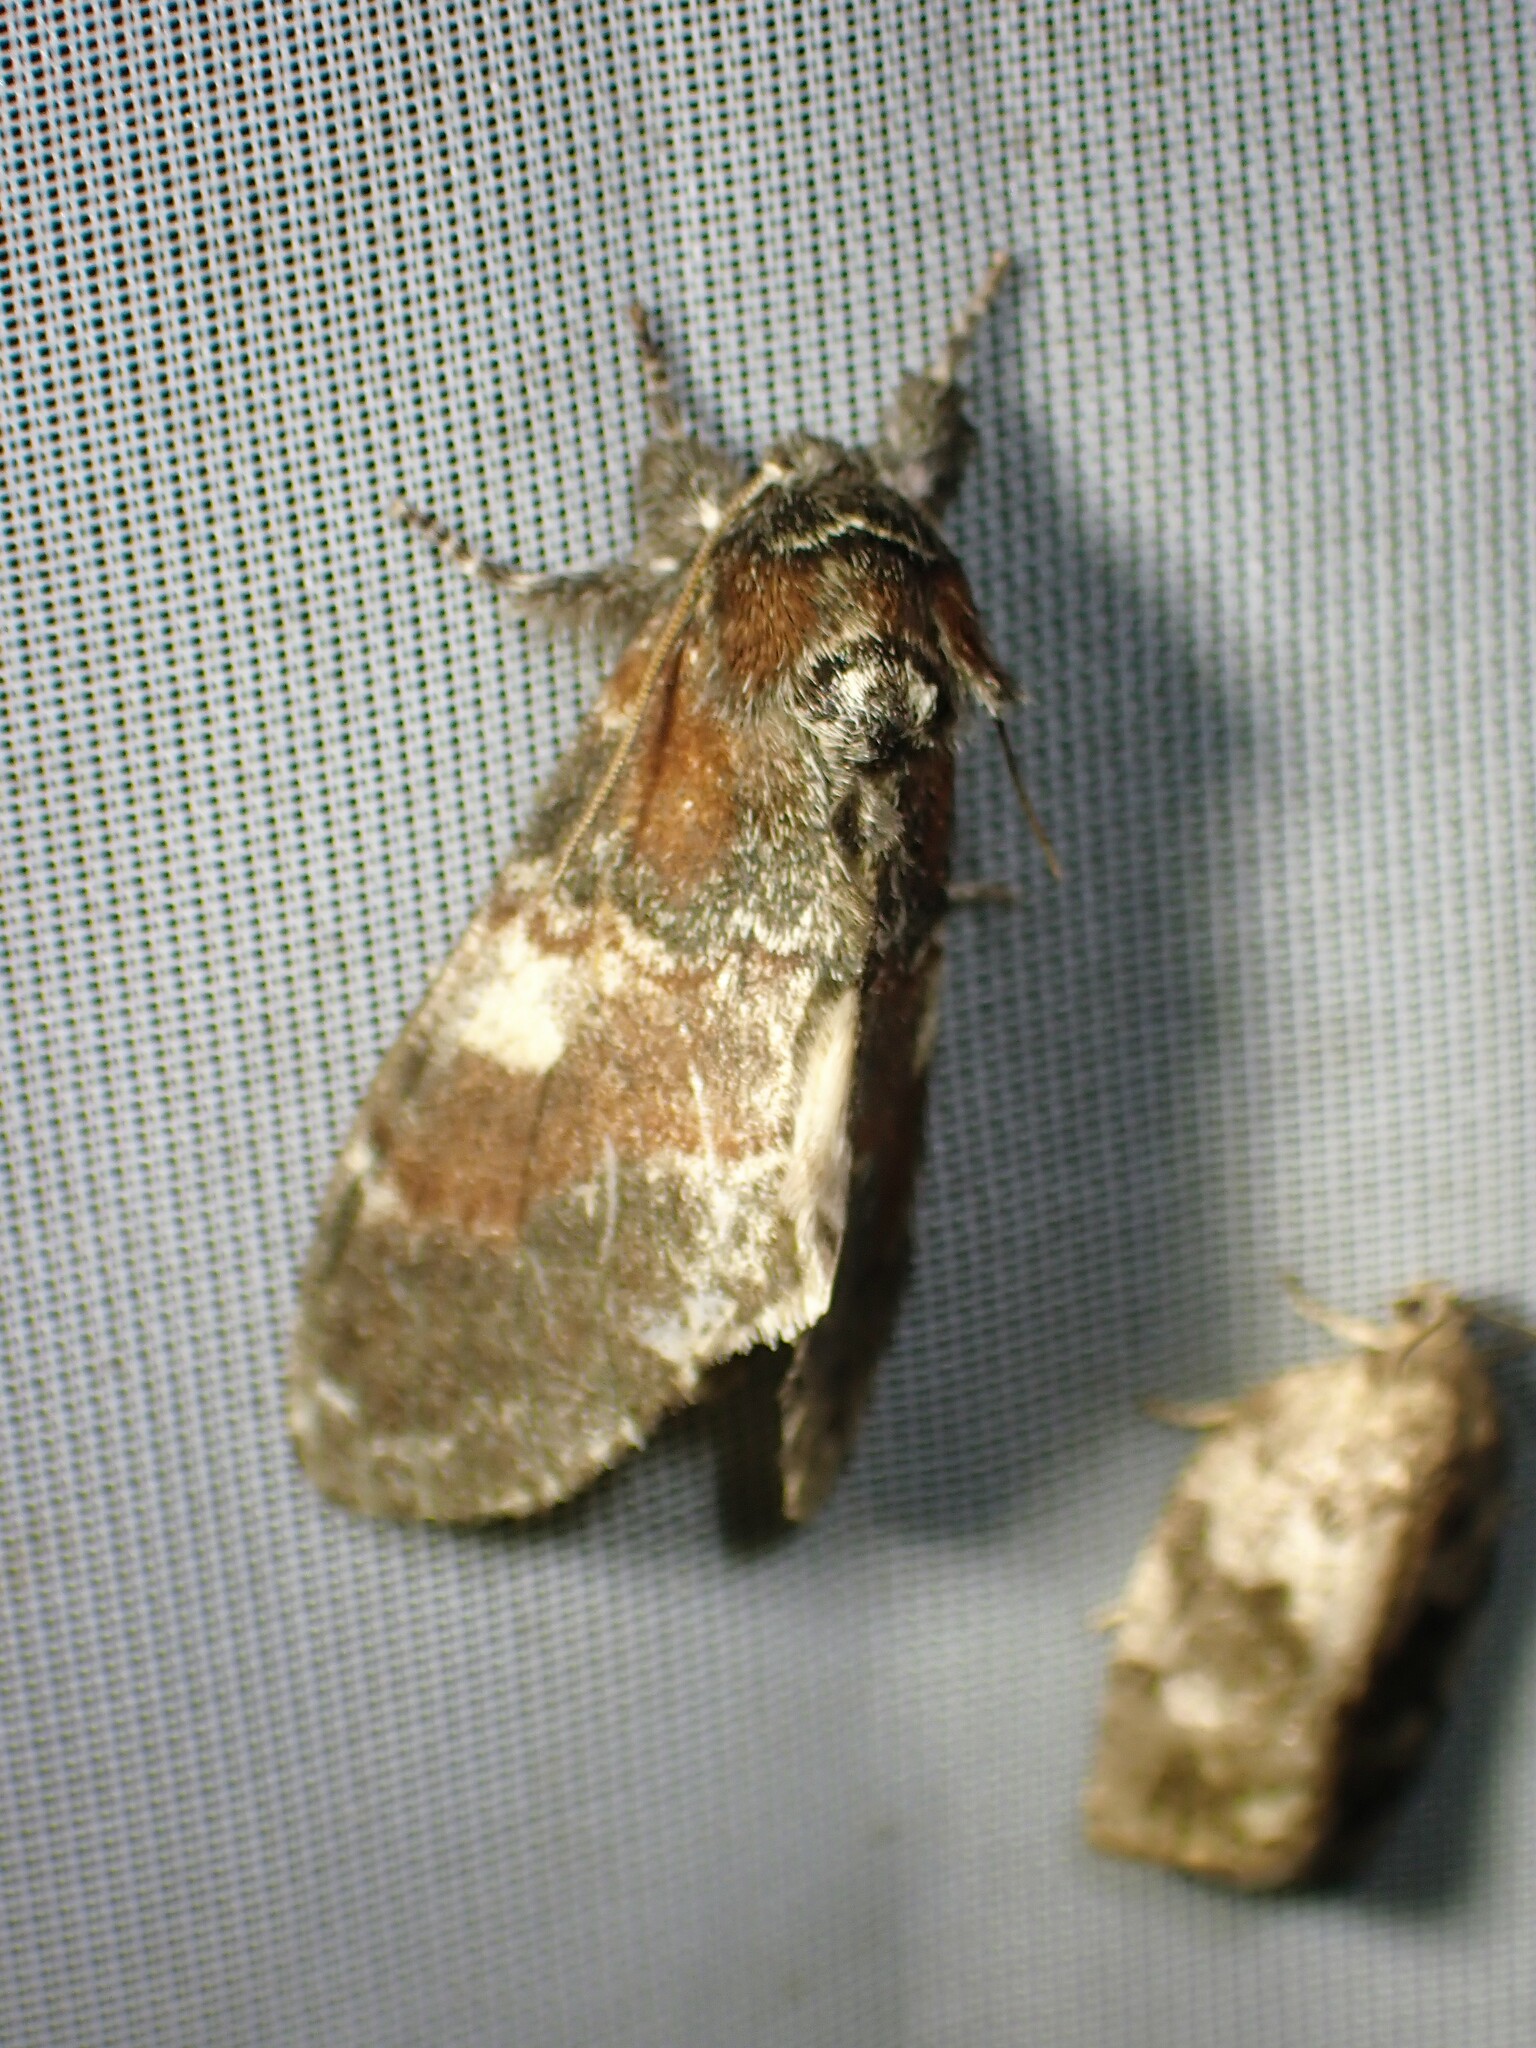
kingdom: Animalia
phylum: Arthropoda
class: Insecta
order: Lepidoptera
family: Notodontidae
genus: Peridea
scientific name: Peridea ferruginea
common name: Chocolate prominent
